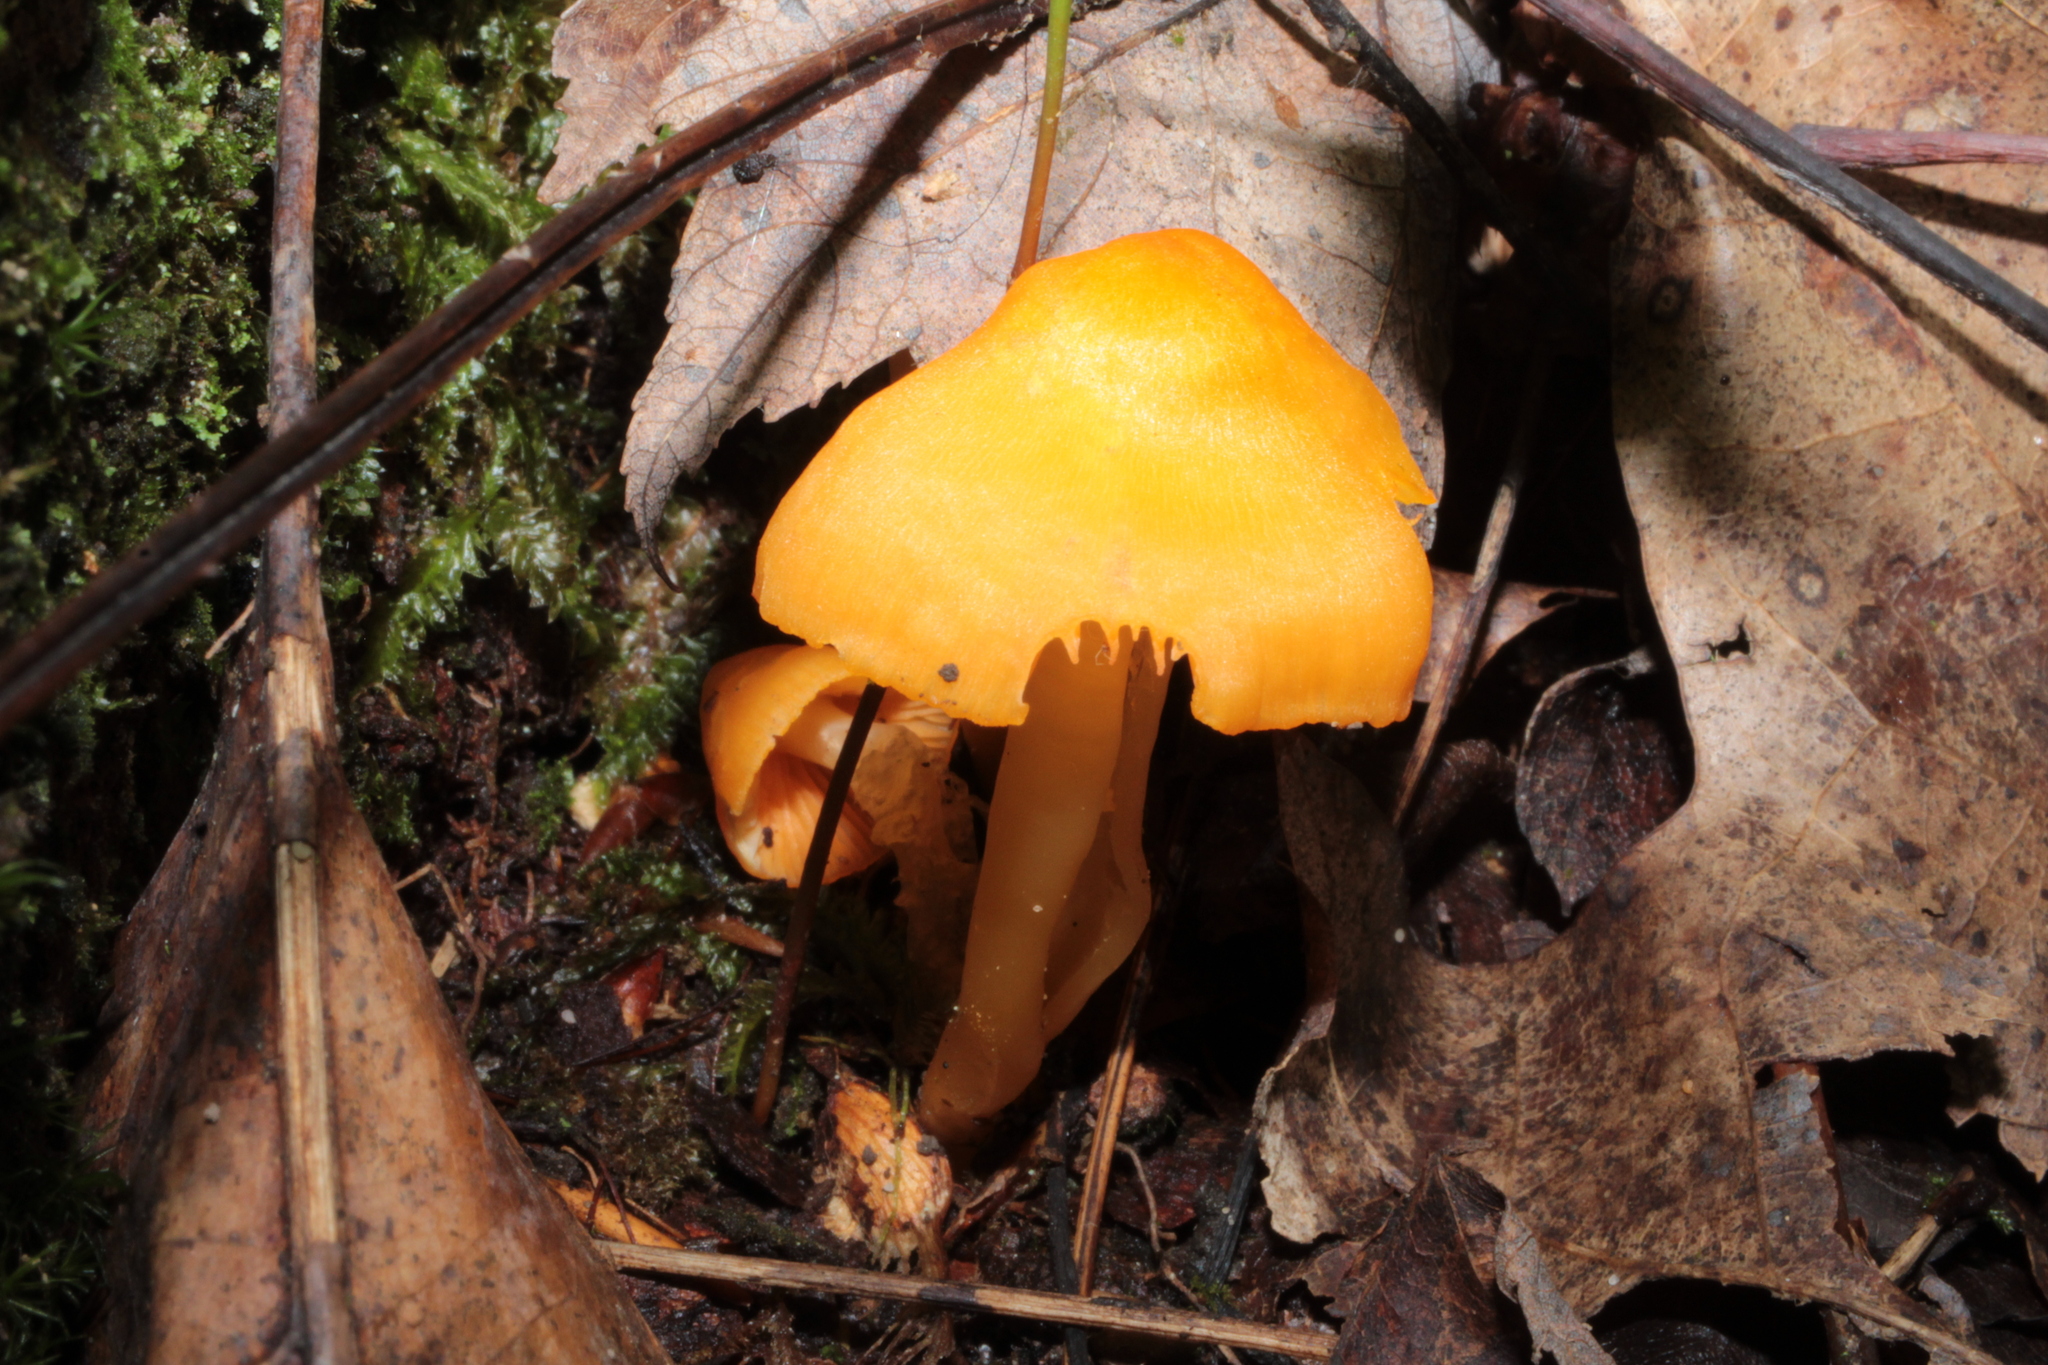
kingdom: Fungi
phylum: Basidiomycota
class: Agaricomycetes
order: Agaricales
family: Hygrophoraceae
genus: Humidicutis
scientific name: Humidicutis marginata
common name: Orange gilled waxcap
